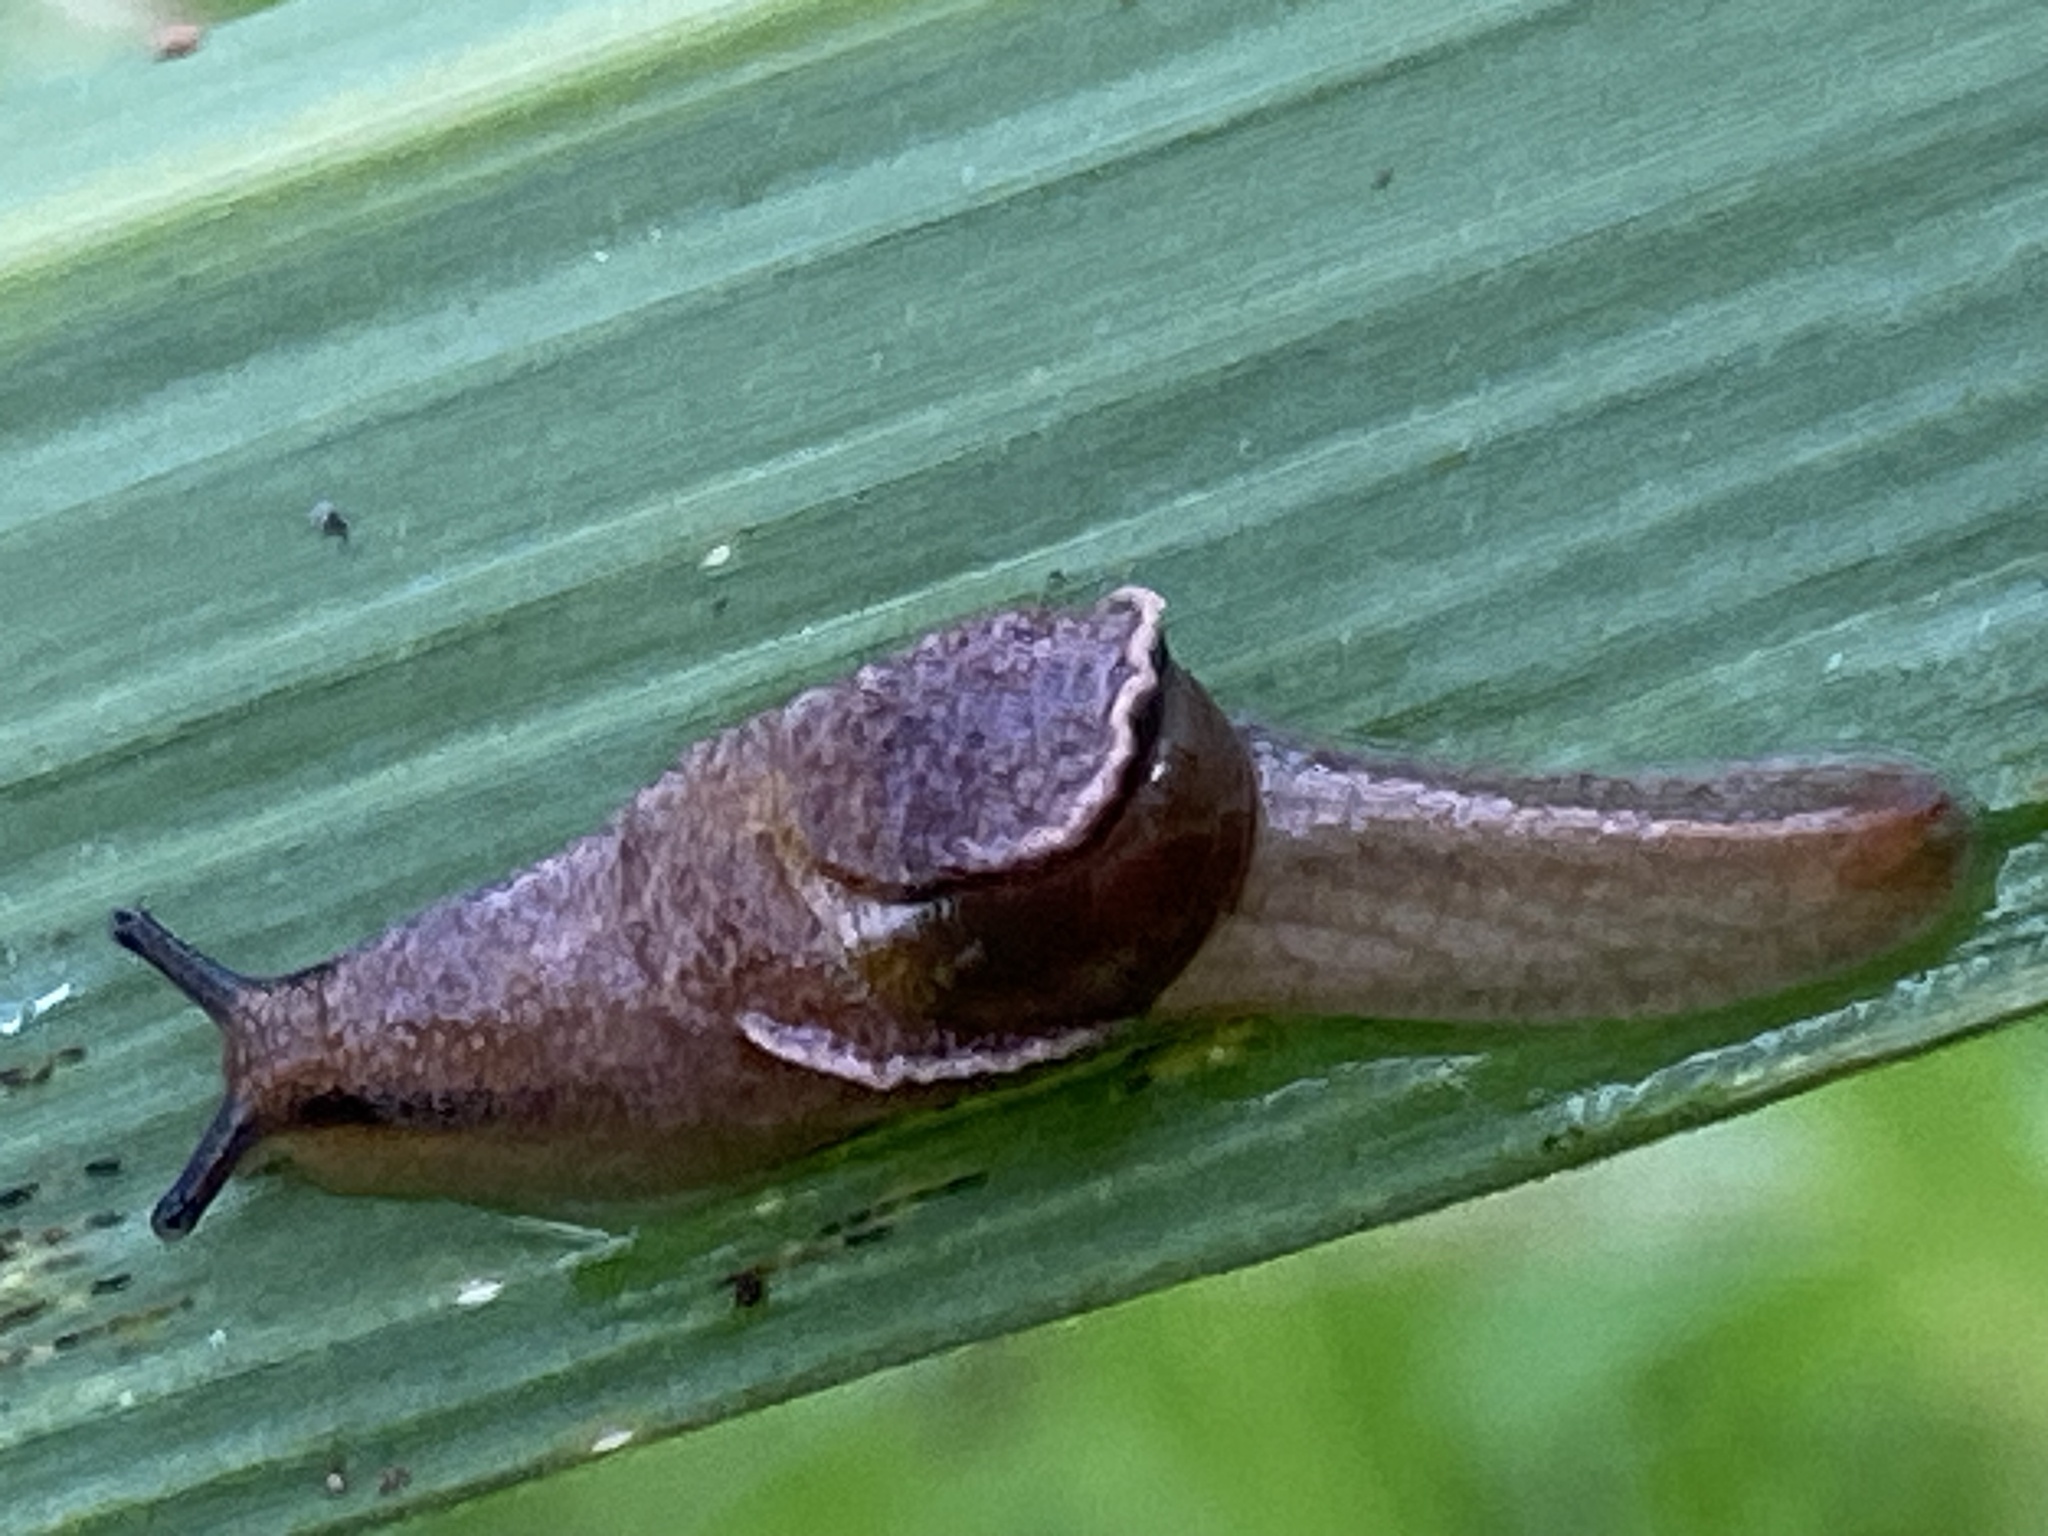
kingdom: Animalia
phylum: Mollusca
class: Gastropoda
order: Stylommatophora
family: Helicarionidae
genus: Ubiquitarion
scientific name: Ubiquitarion iridis
